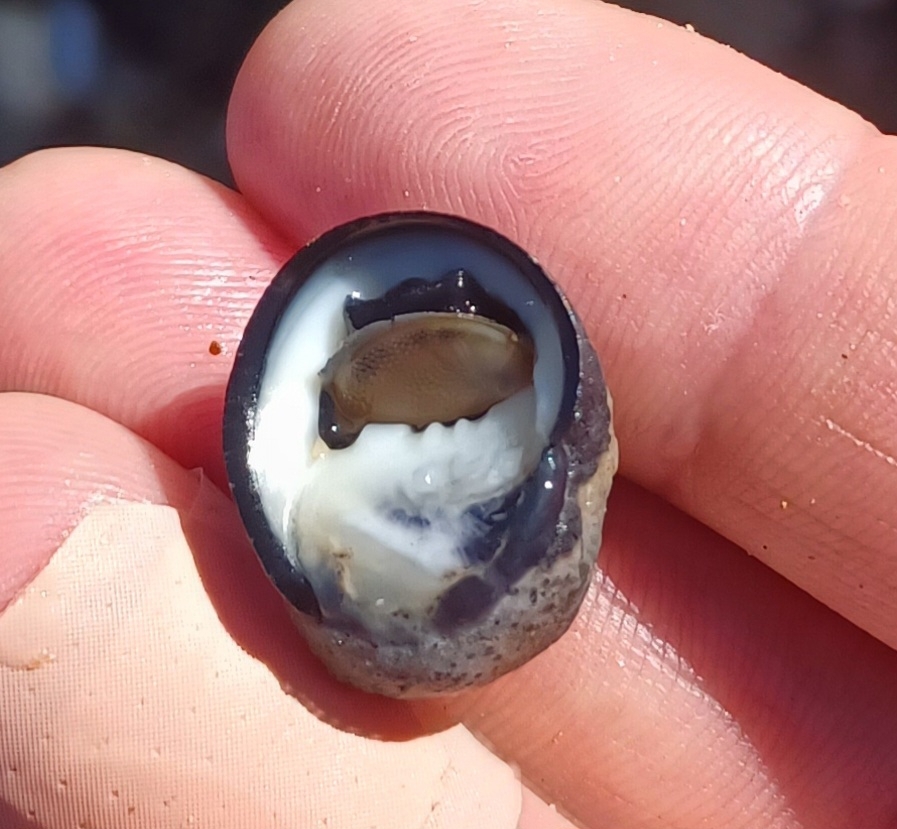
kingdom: Animalia
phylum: Mollusca
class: Gastropoda
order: Cycloneritida
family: Neritidae
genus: Nerita
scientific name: Nerita melanotragus
